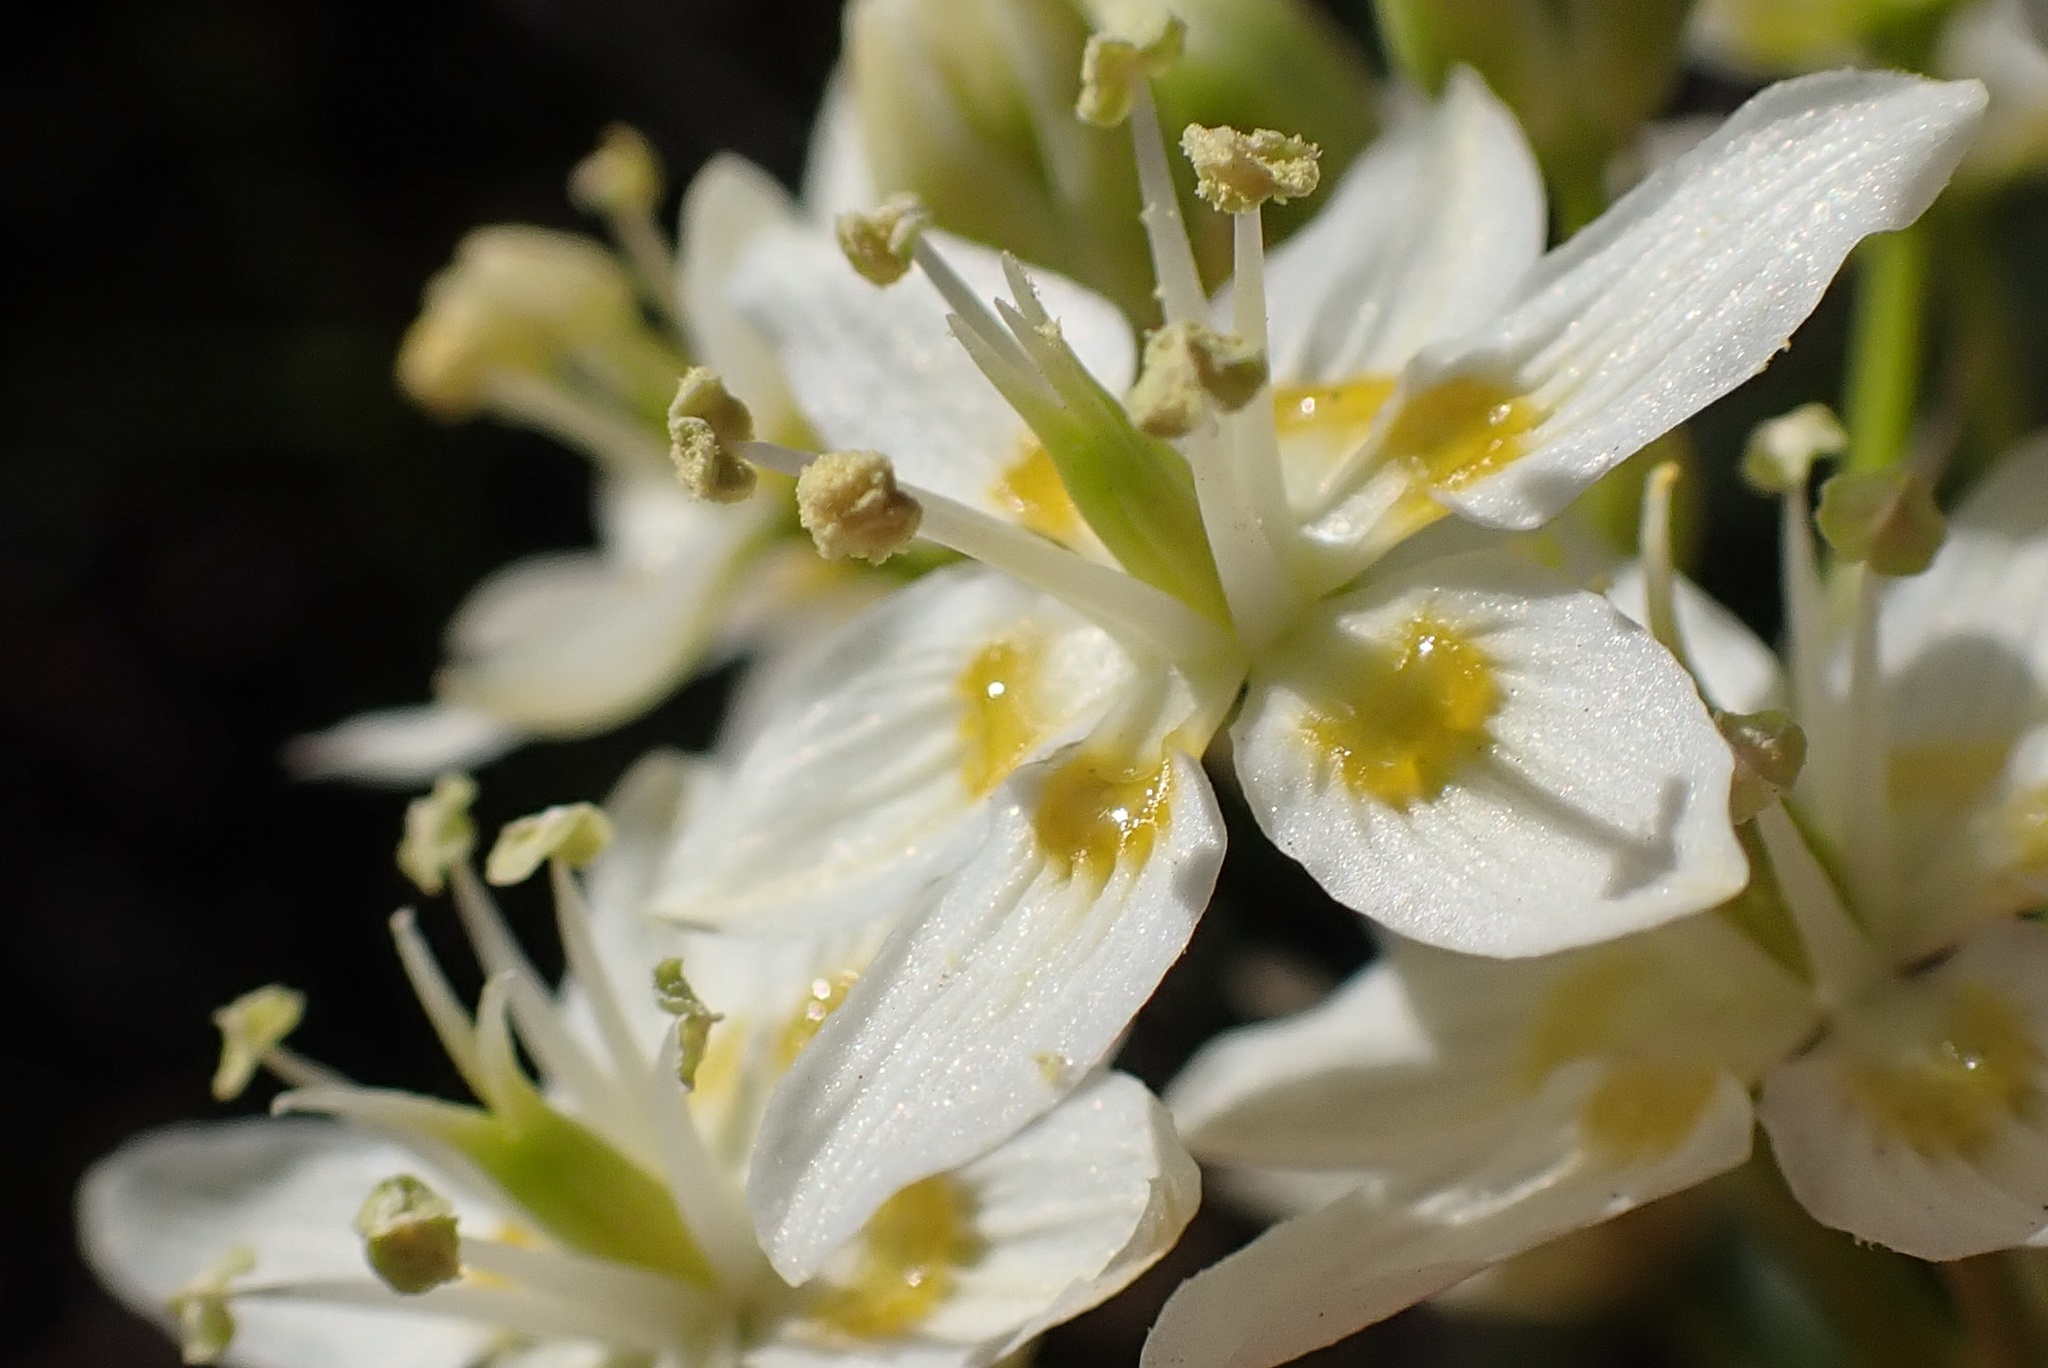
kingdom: Plantae
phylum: Tracheophyta
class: Liliopsida
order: Liliales
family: Melanthiaceae
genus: Toxicoscordion
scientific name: Toxicoscordion fremontii
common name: Fremont's death camas
